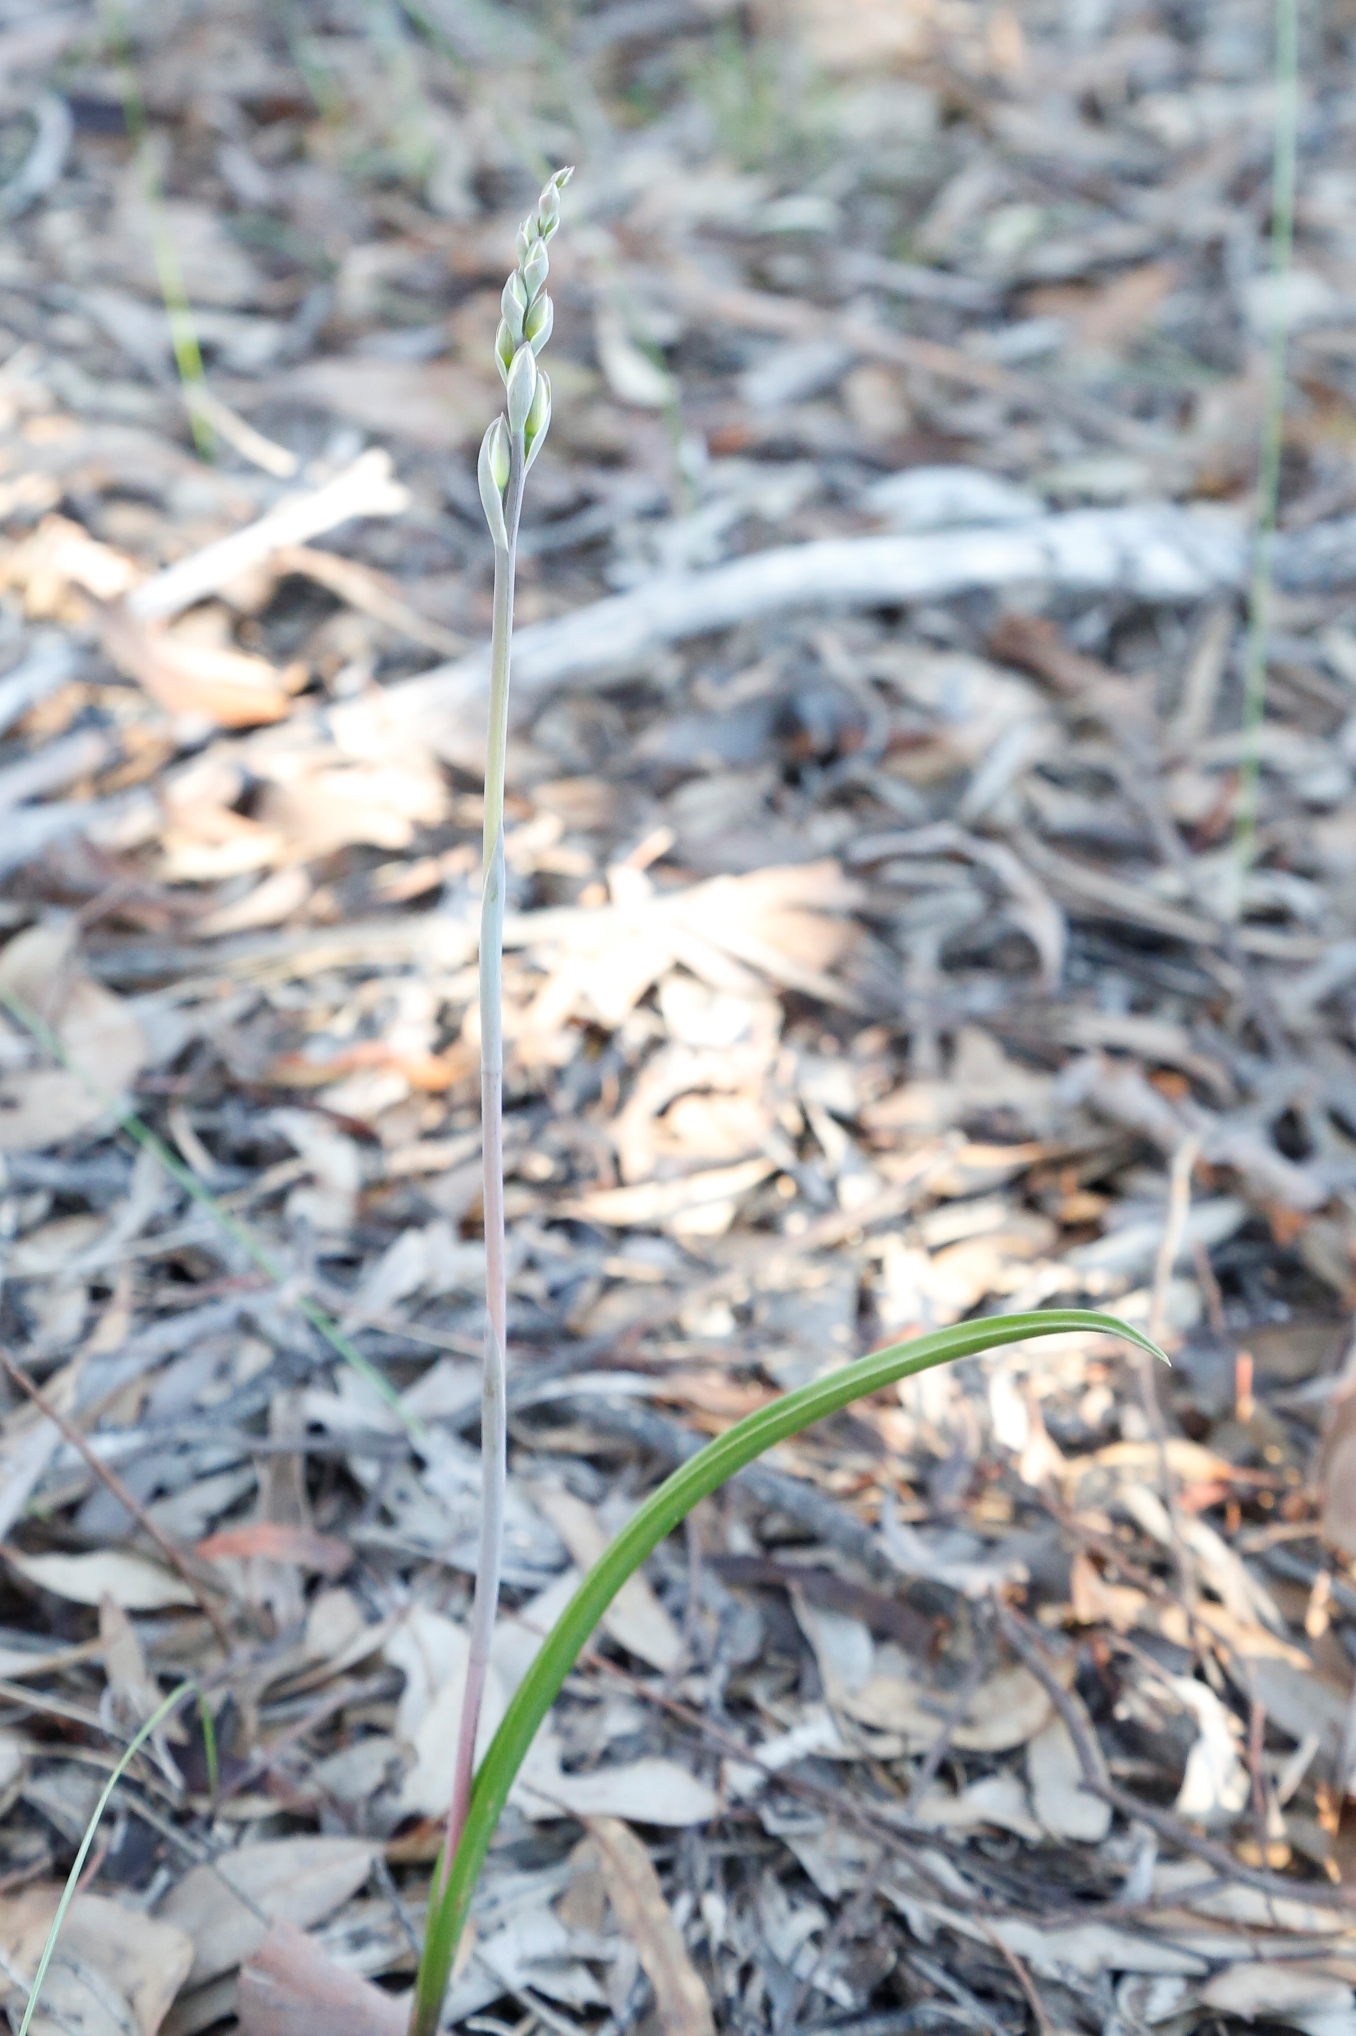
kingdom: Plantae
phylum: Tracheophyta
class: Liliopsida
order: Asparagales
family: Orchidaceae
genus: Thelymitra
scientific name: Thelymitra petrophila
